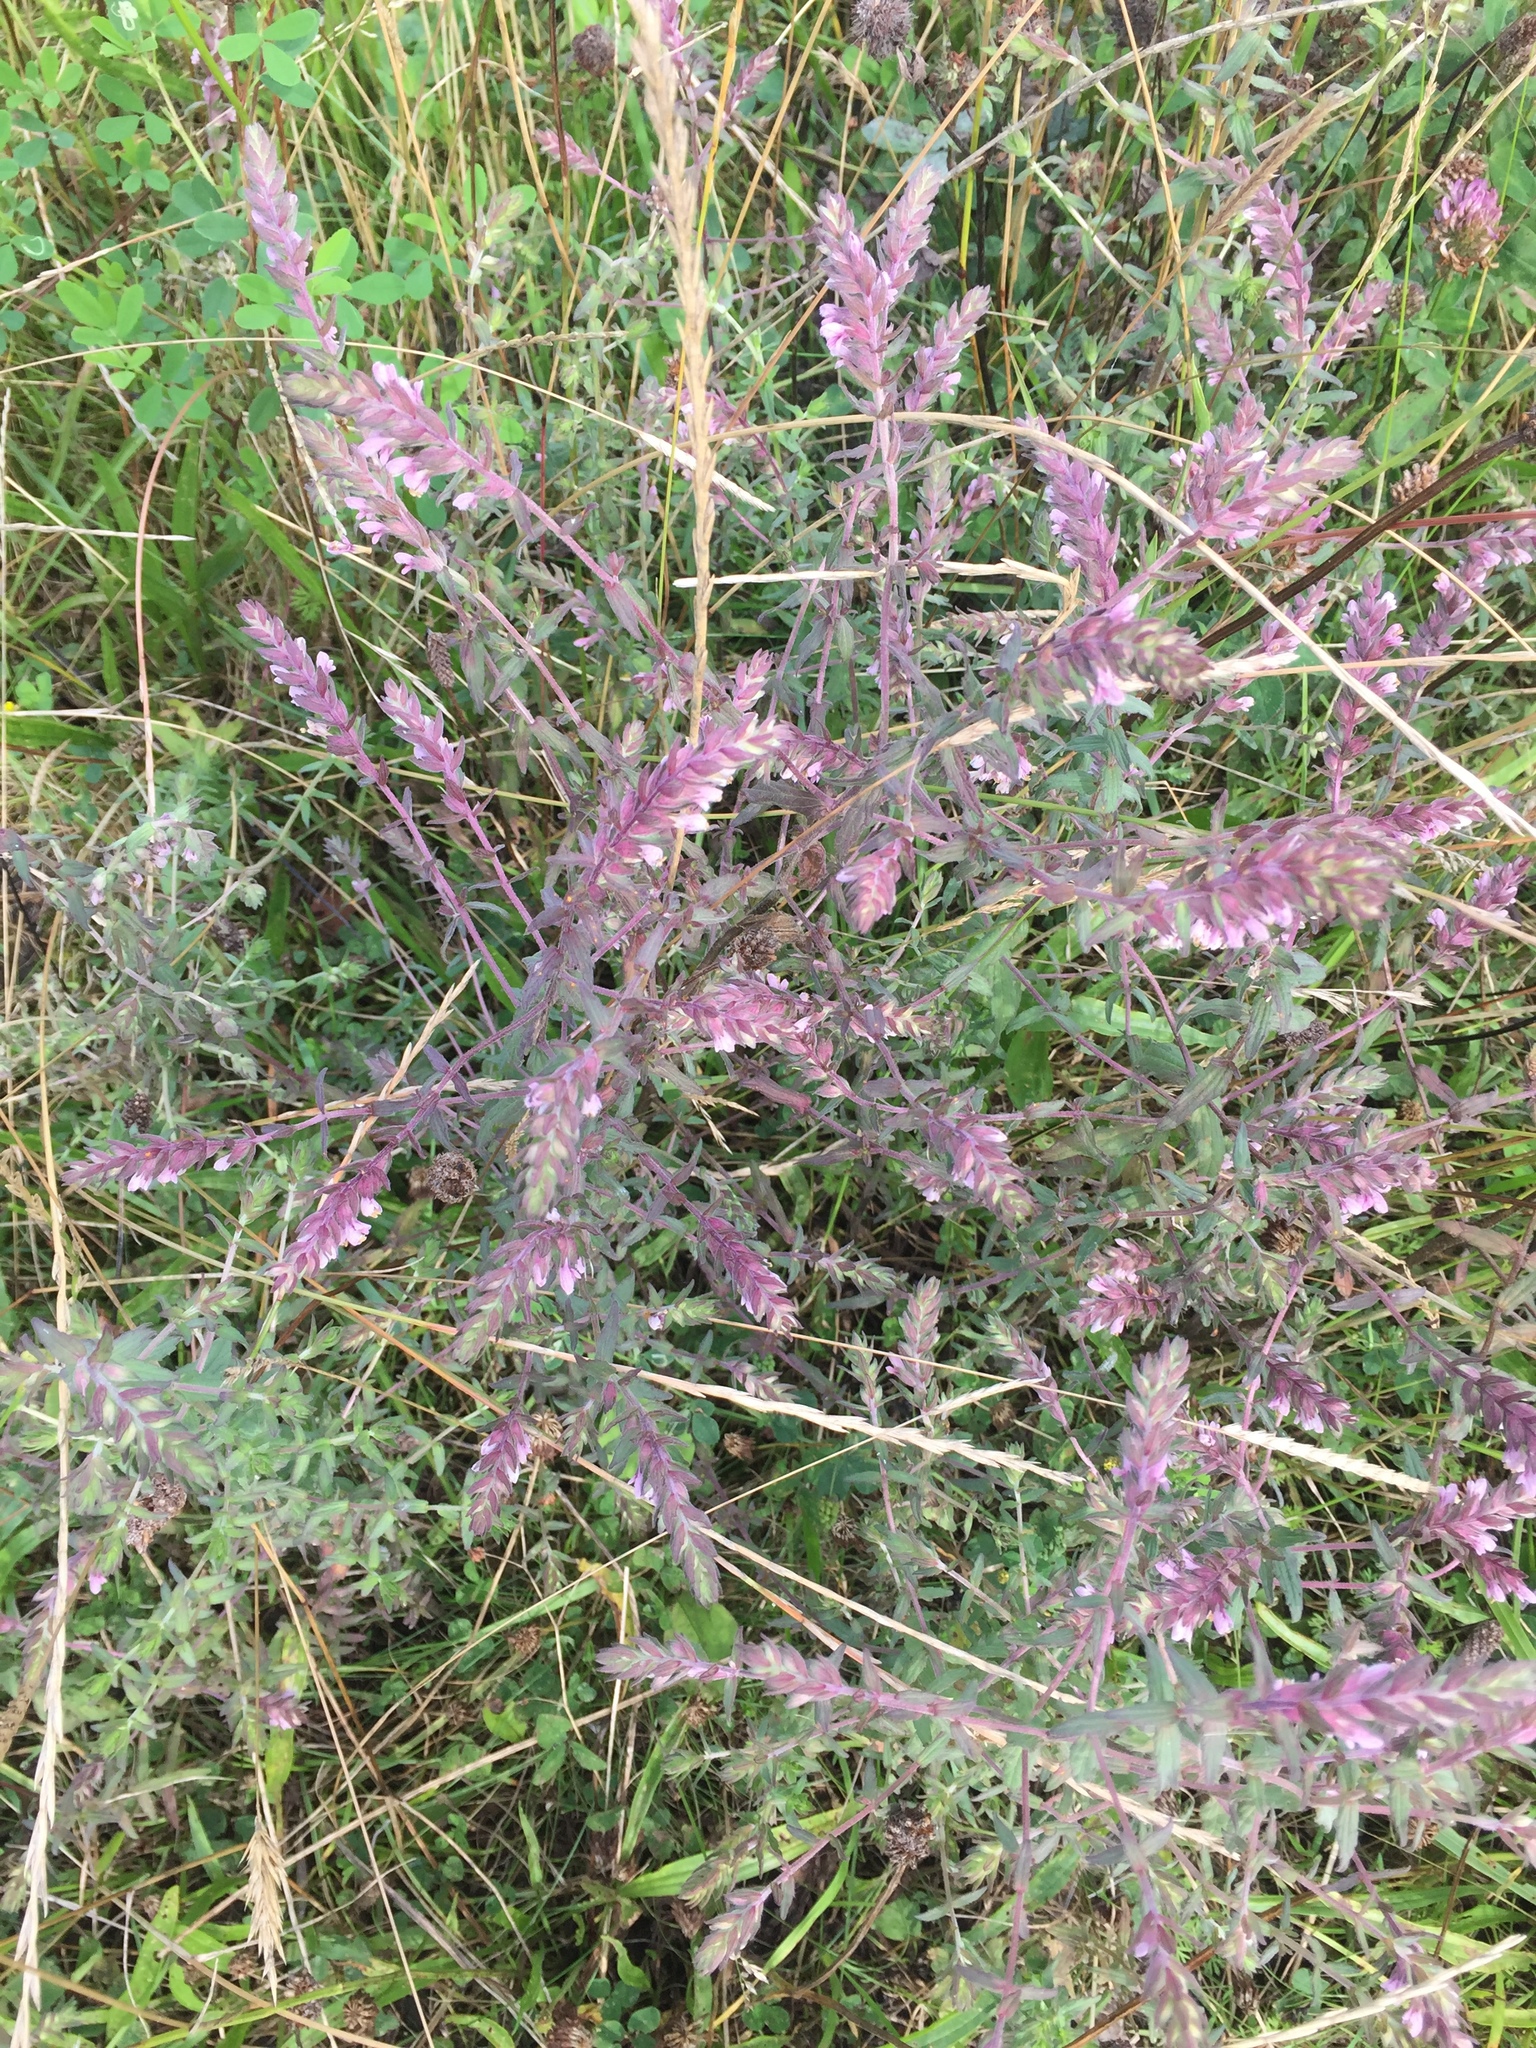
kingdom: Plantae
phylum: Tracheophyta
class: Magnoliopsida
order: Lamiales
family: Orobanchaceae
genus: Odontites
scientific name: Odontites vernus
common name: Red bartsia
